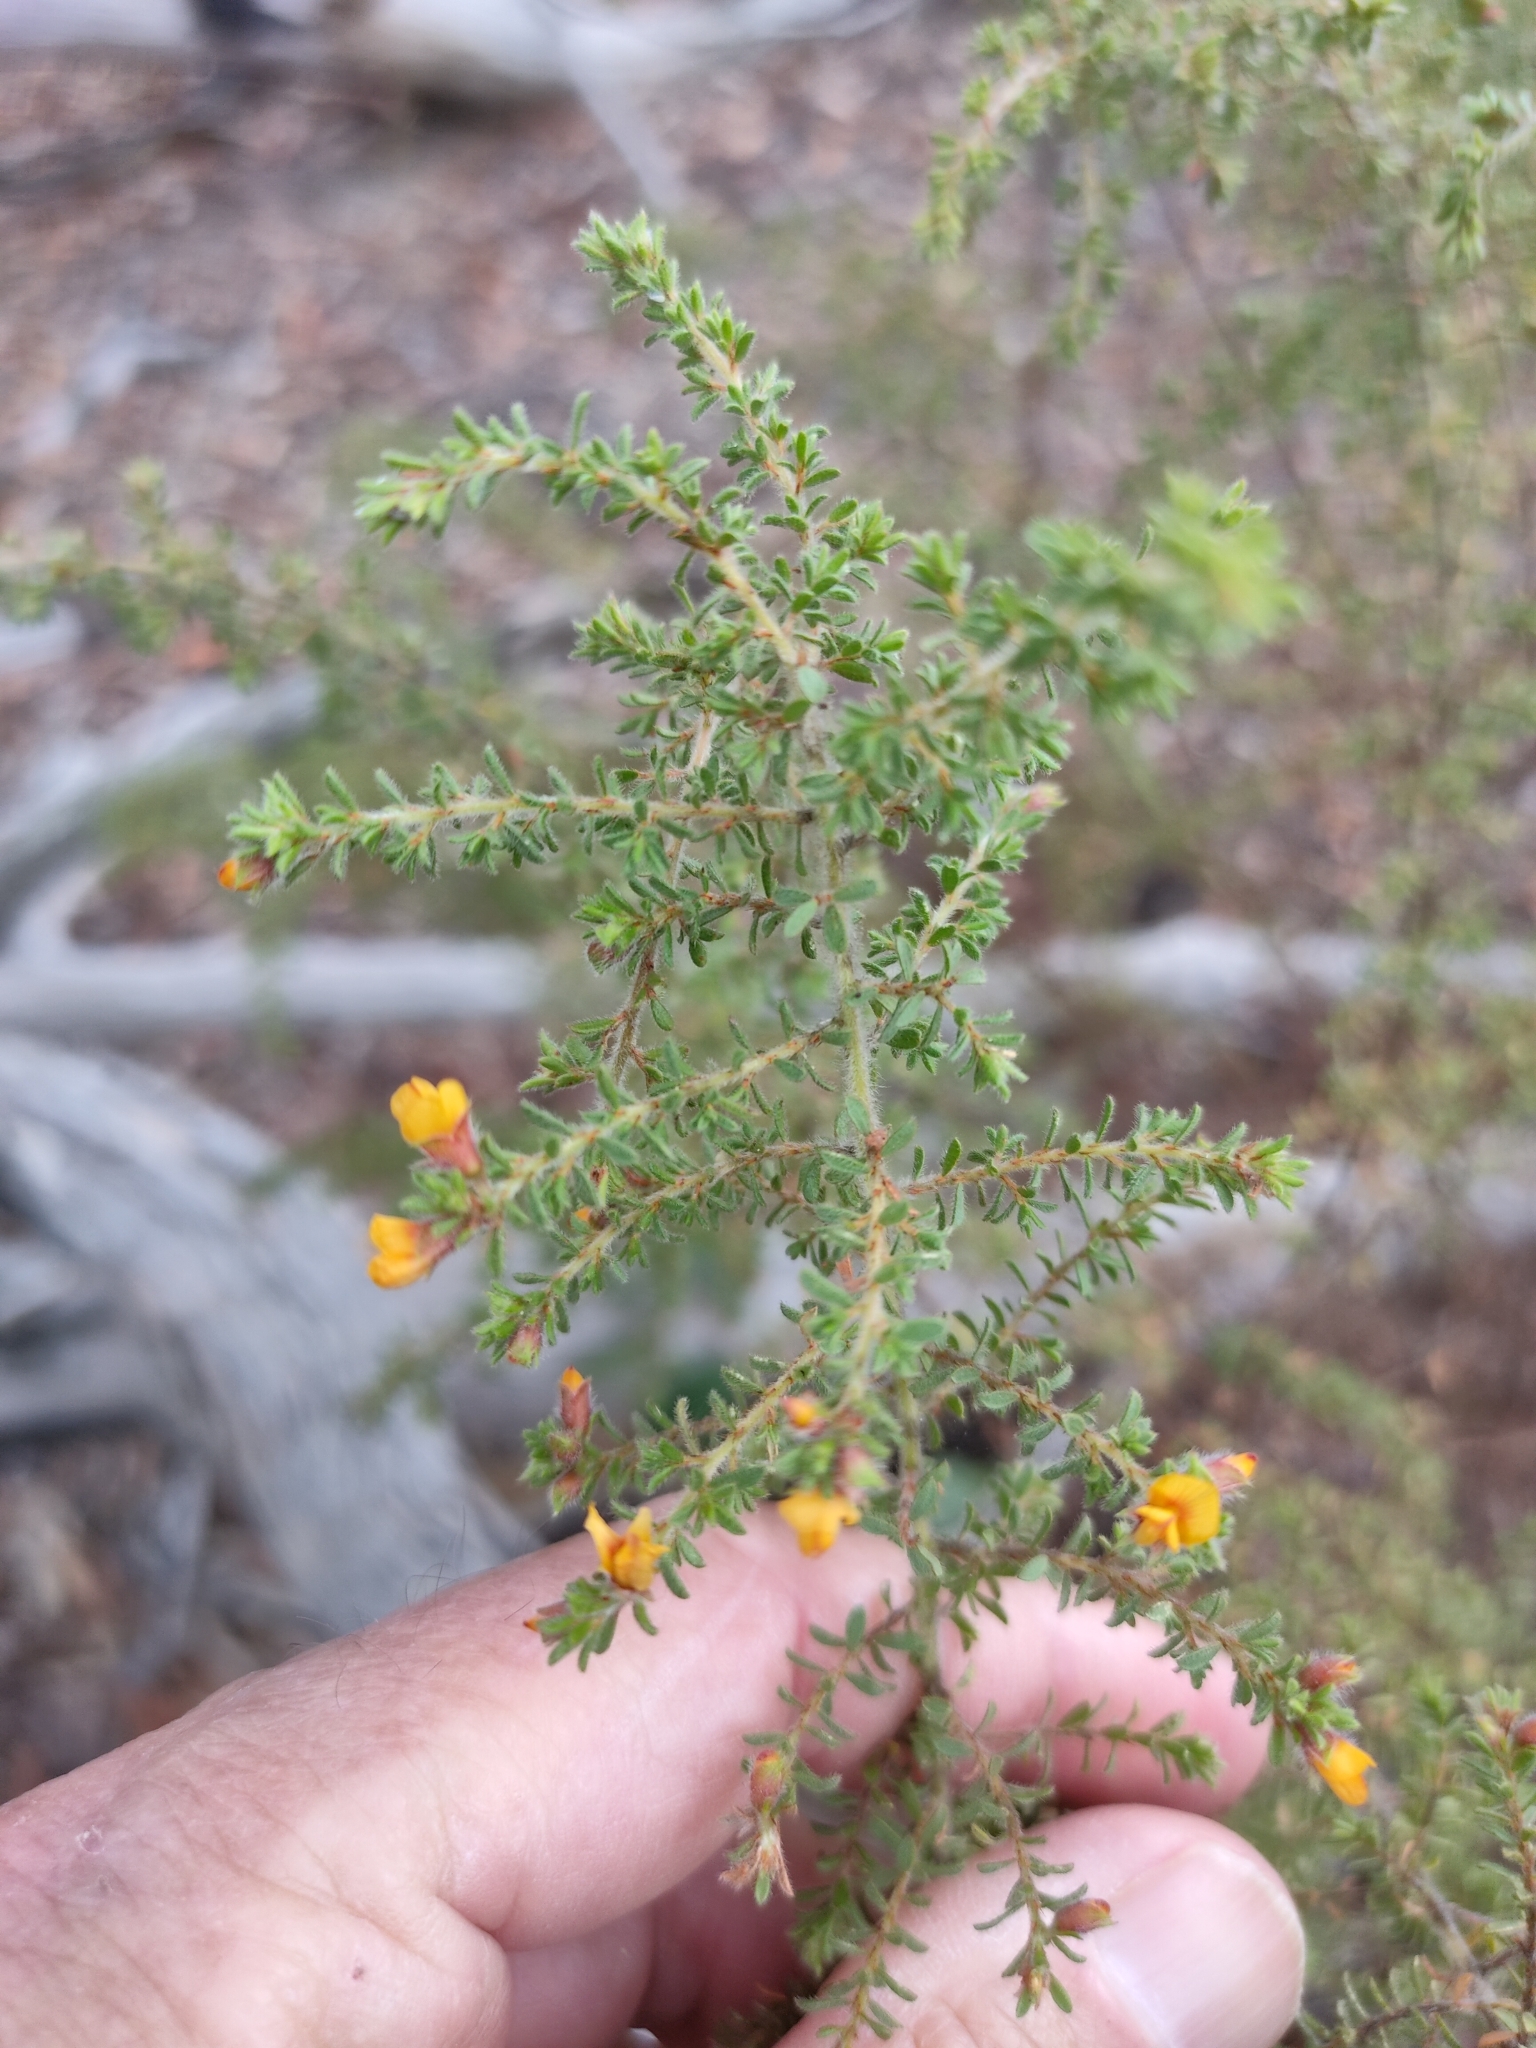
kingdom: Plantae
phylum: Tracheophyta
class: Magnoliopsida
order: Fabales
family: Fabaceae
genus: Pultenaea
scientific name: Pultenaea villosa
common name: Bronze bush-pea
